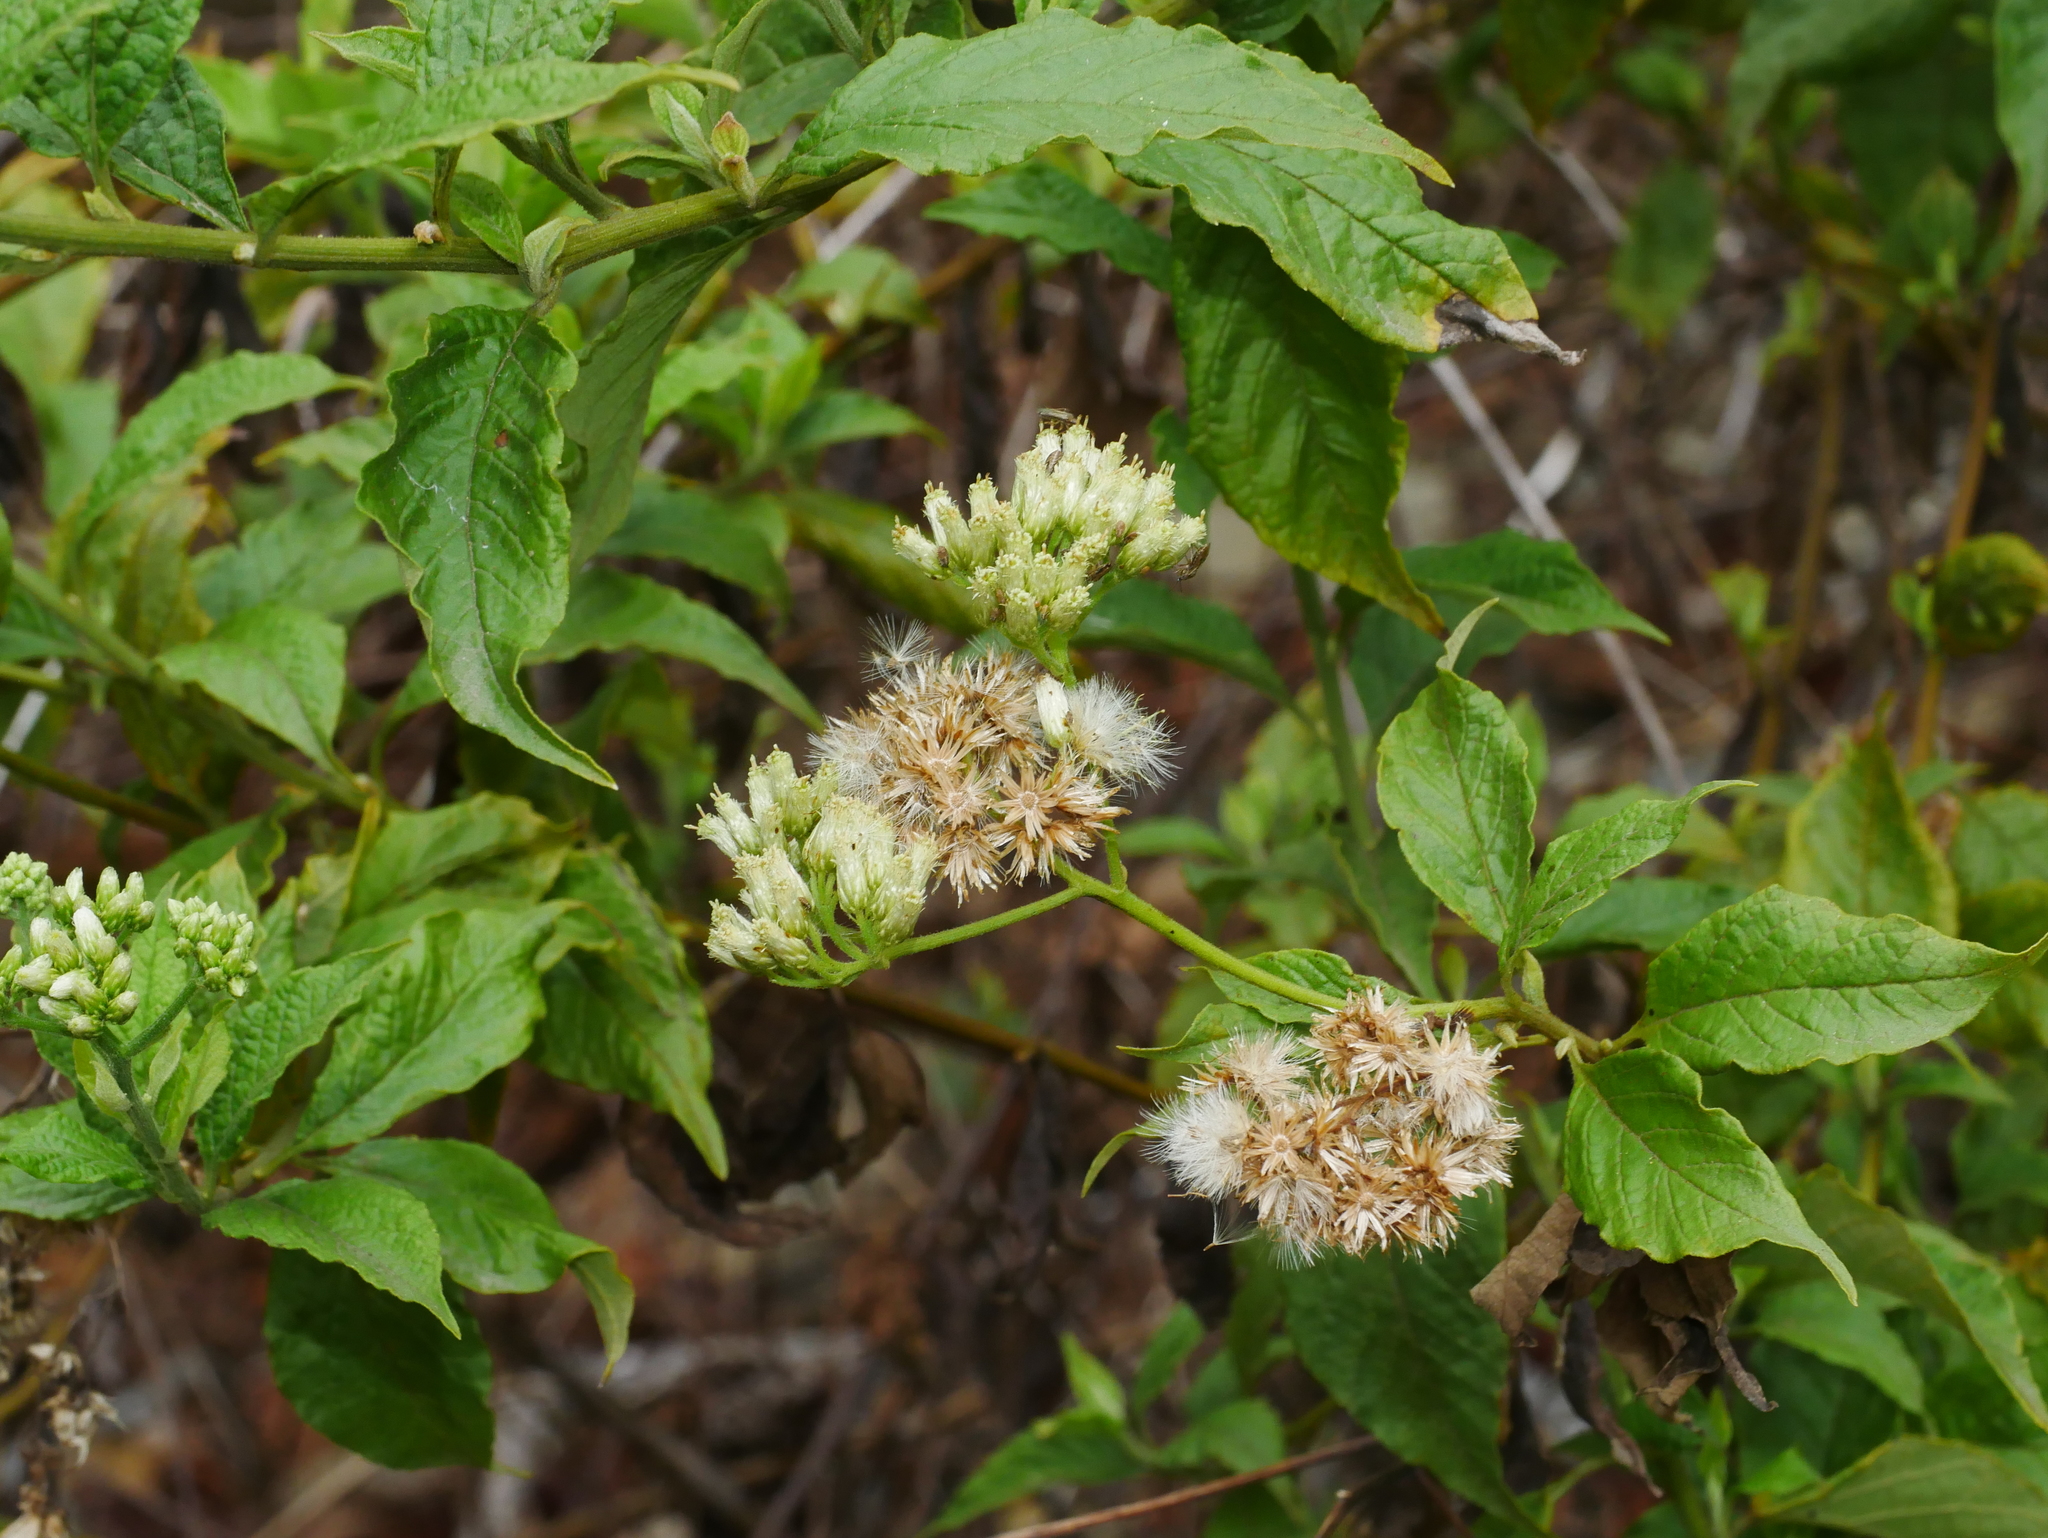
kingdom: Plantae
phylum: Tracheophyta
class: Magnoliopsida
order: Asterales
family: Asteraceae
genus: Microglossa
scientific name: Microglossa pyrifolia
